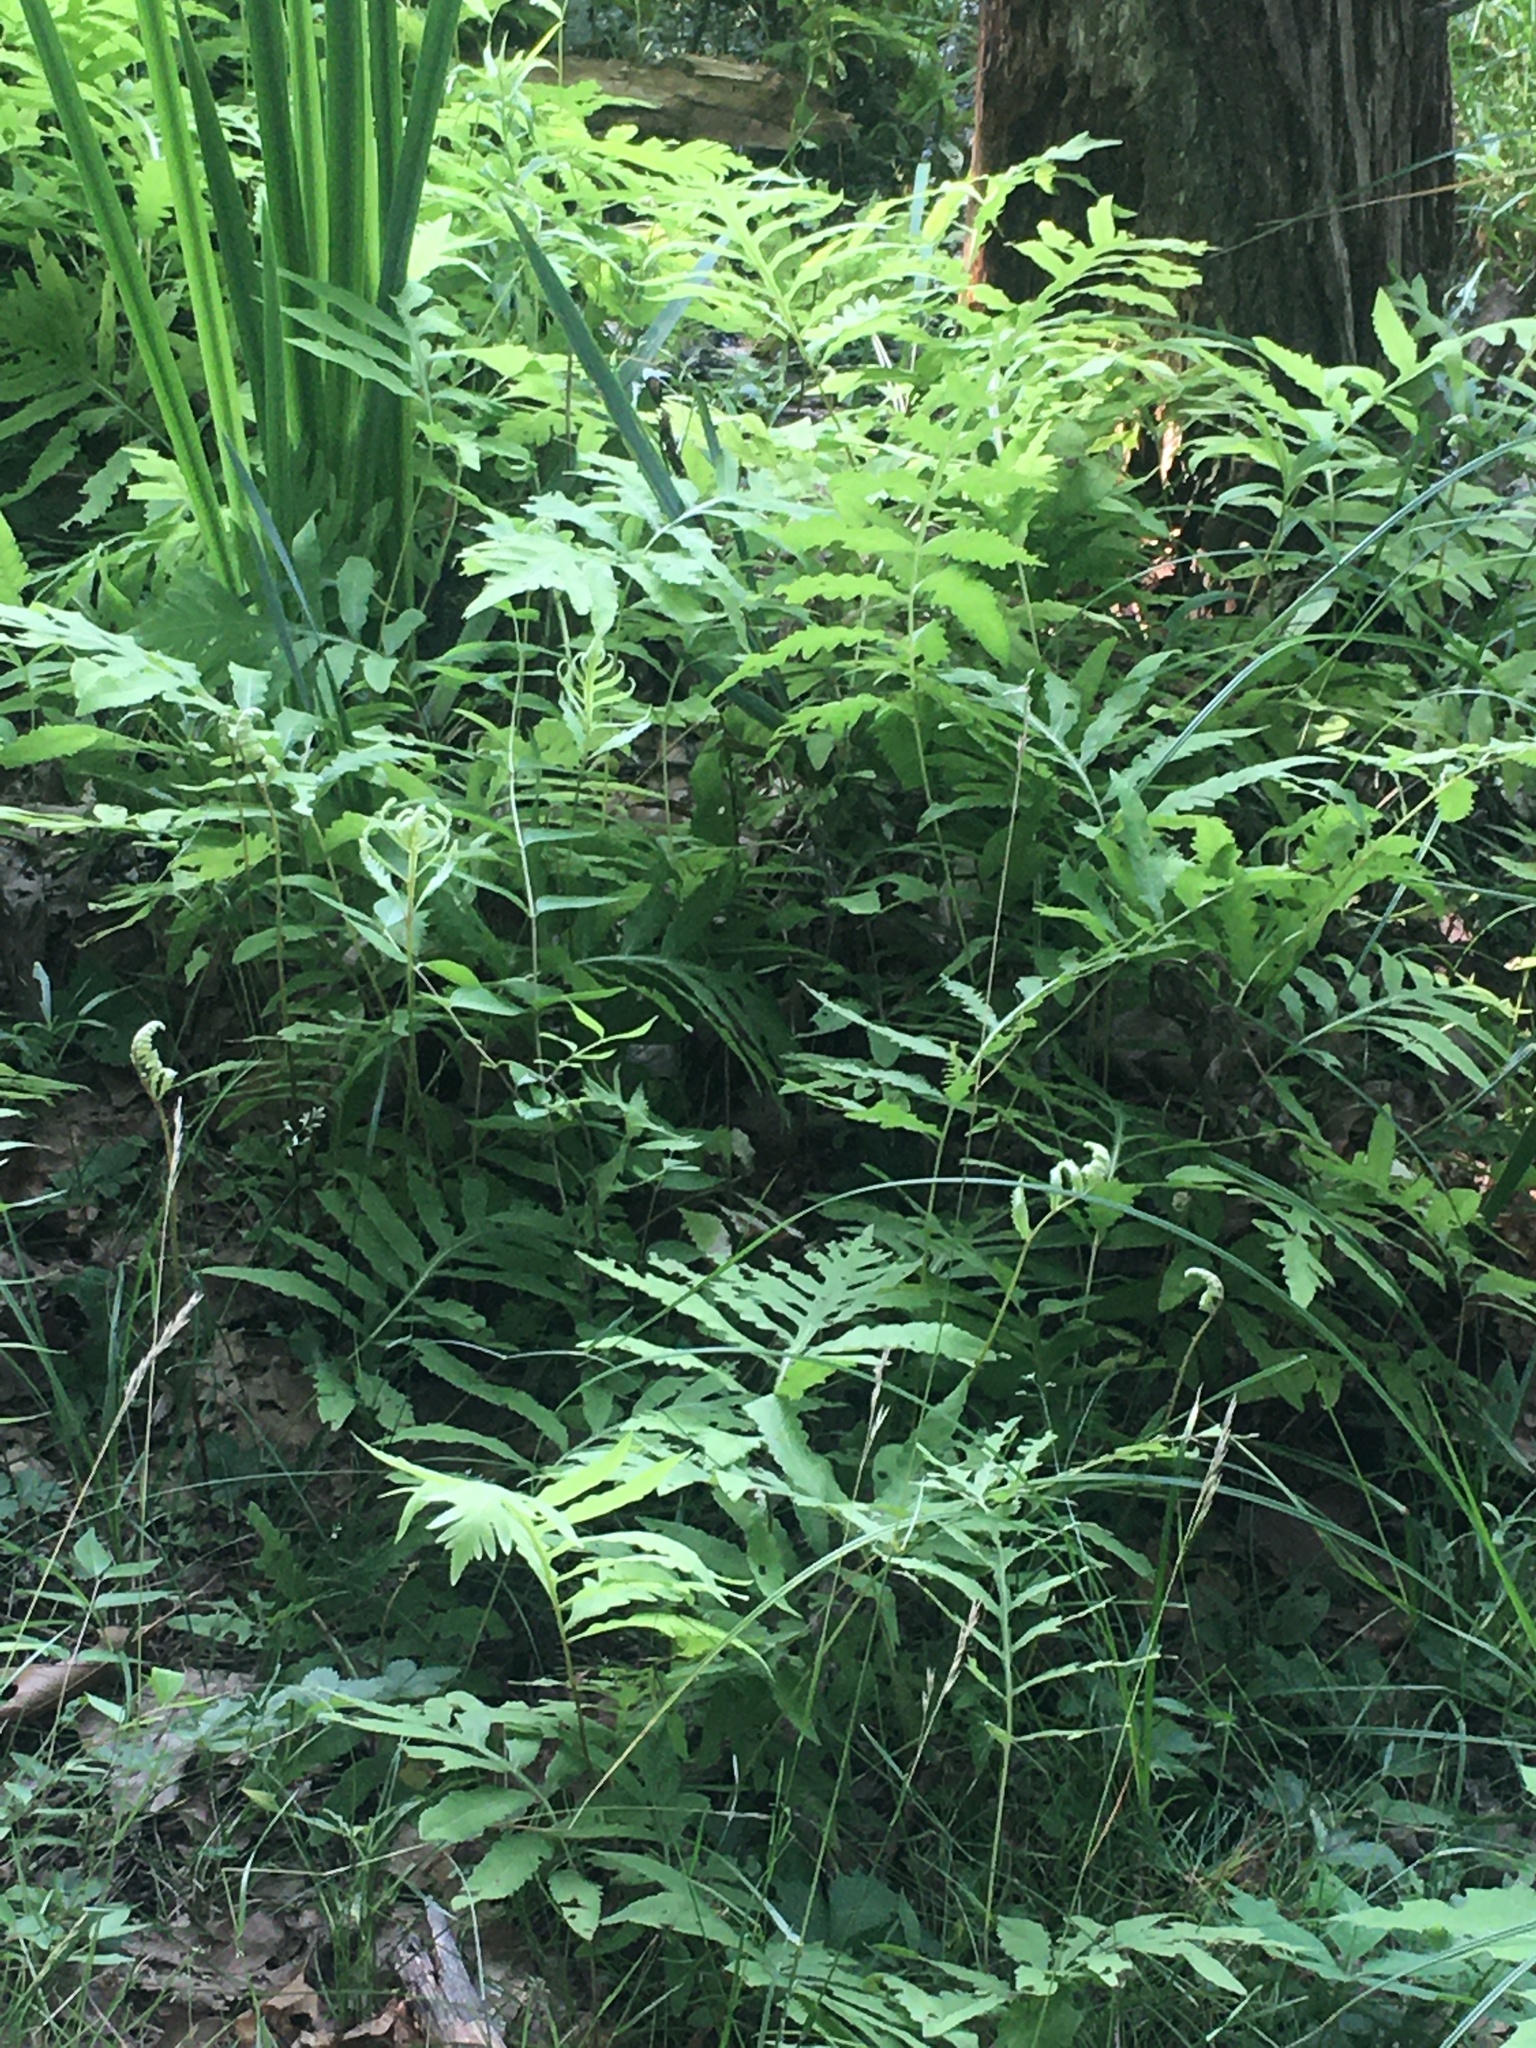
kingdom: Plantae
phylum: Tracheophyta
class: Polypodiopsida
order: Polypodiales
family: Onocleaceae
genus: Onoclea
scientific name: Onoclea sensibilis
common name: Sensitive fern
